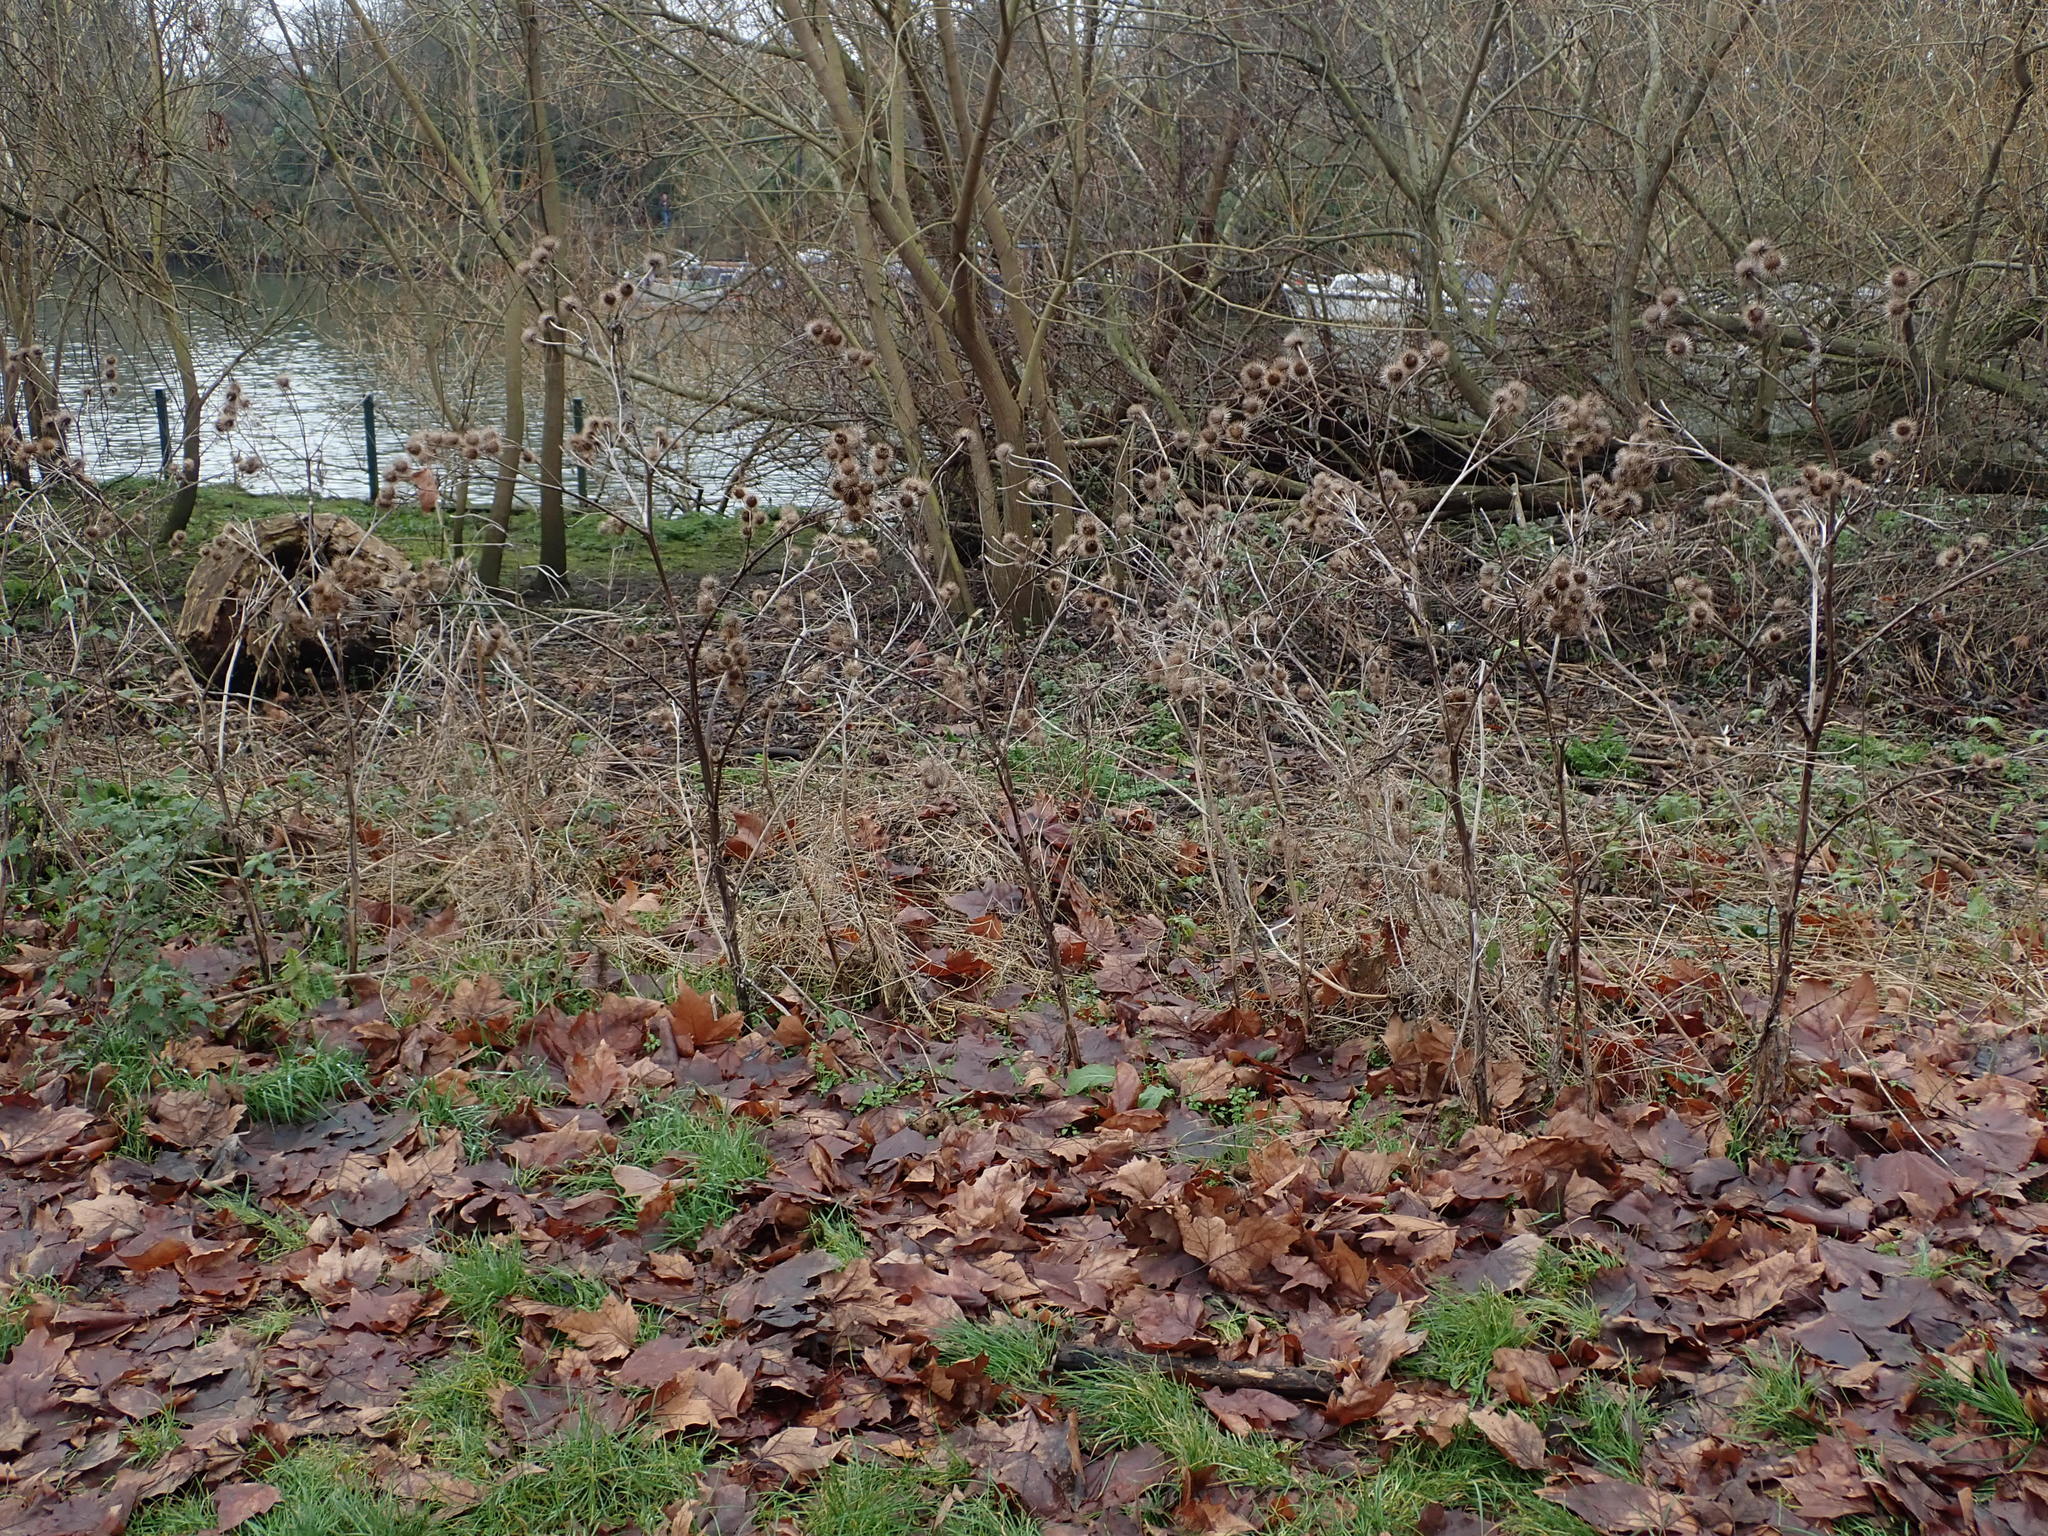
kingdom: Plantae
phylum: Tracheophyta
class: Magnoliopsida
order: Asterales
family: Asteraceae
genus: Arctium
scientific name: Arctium lappa
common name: Greater burdock
